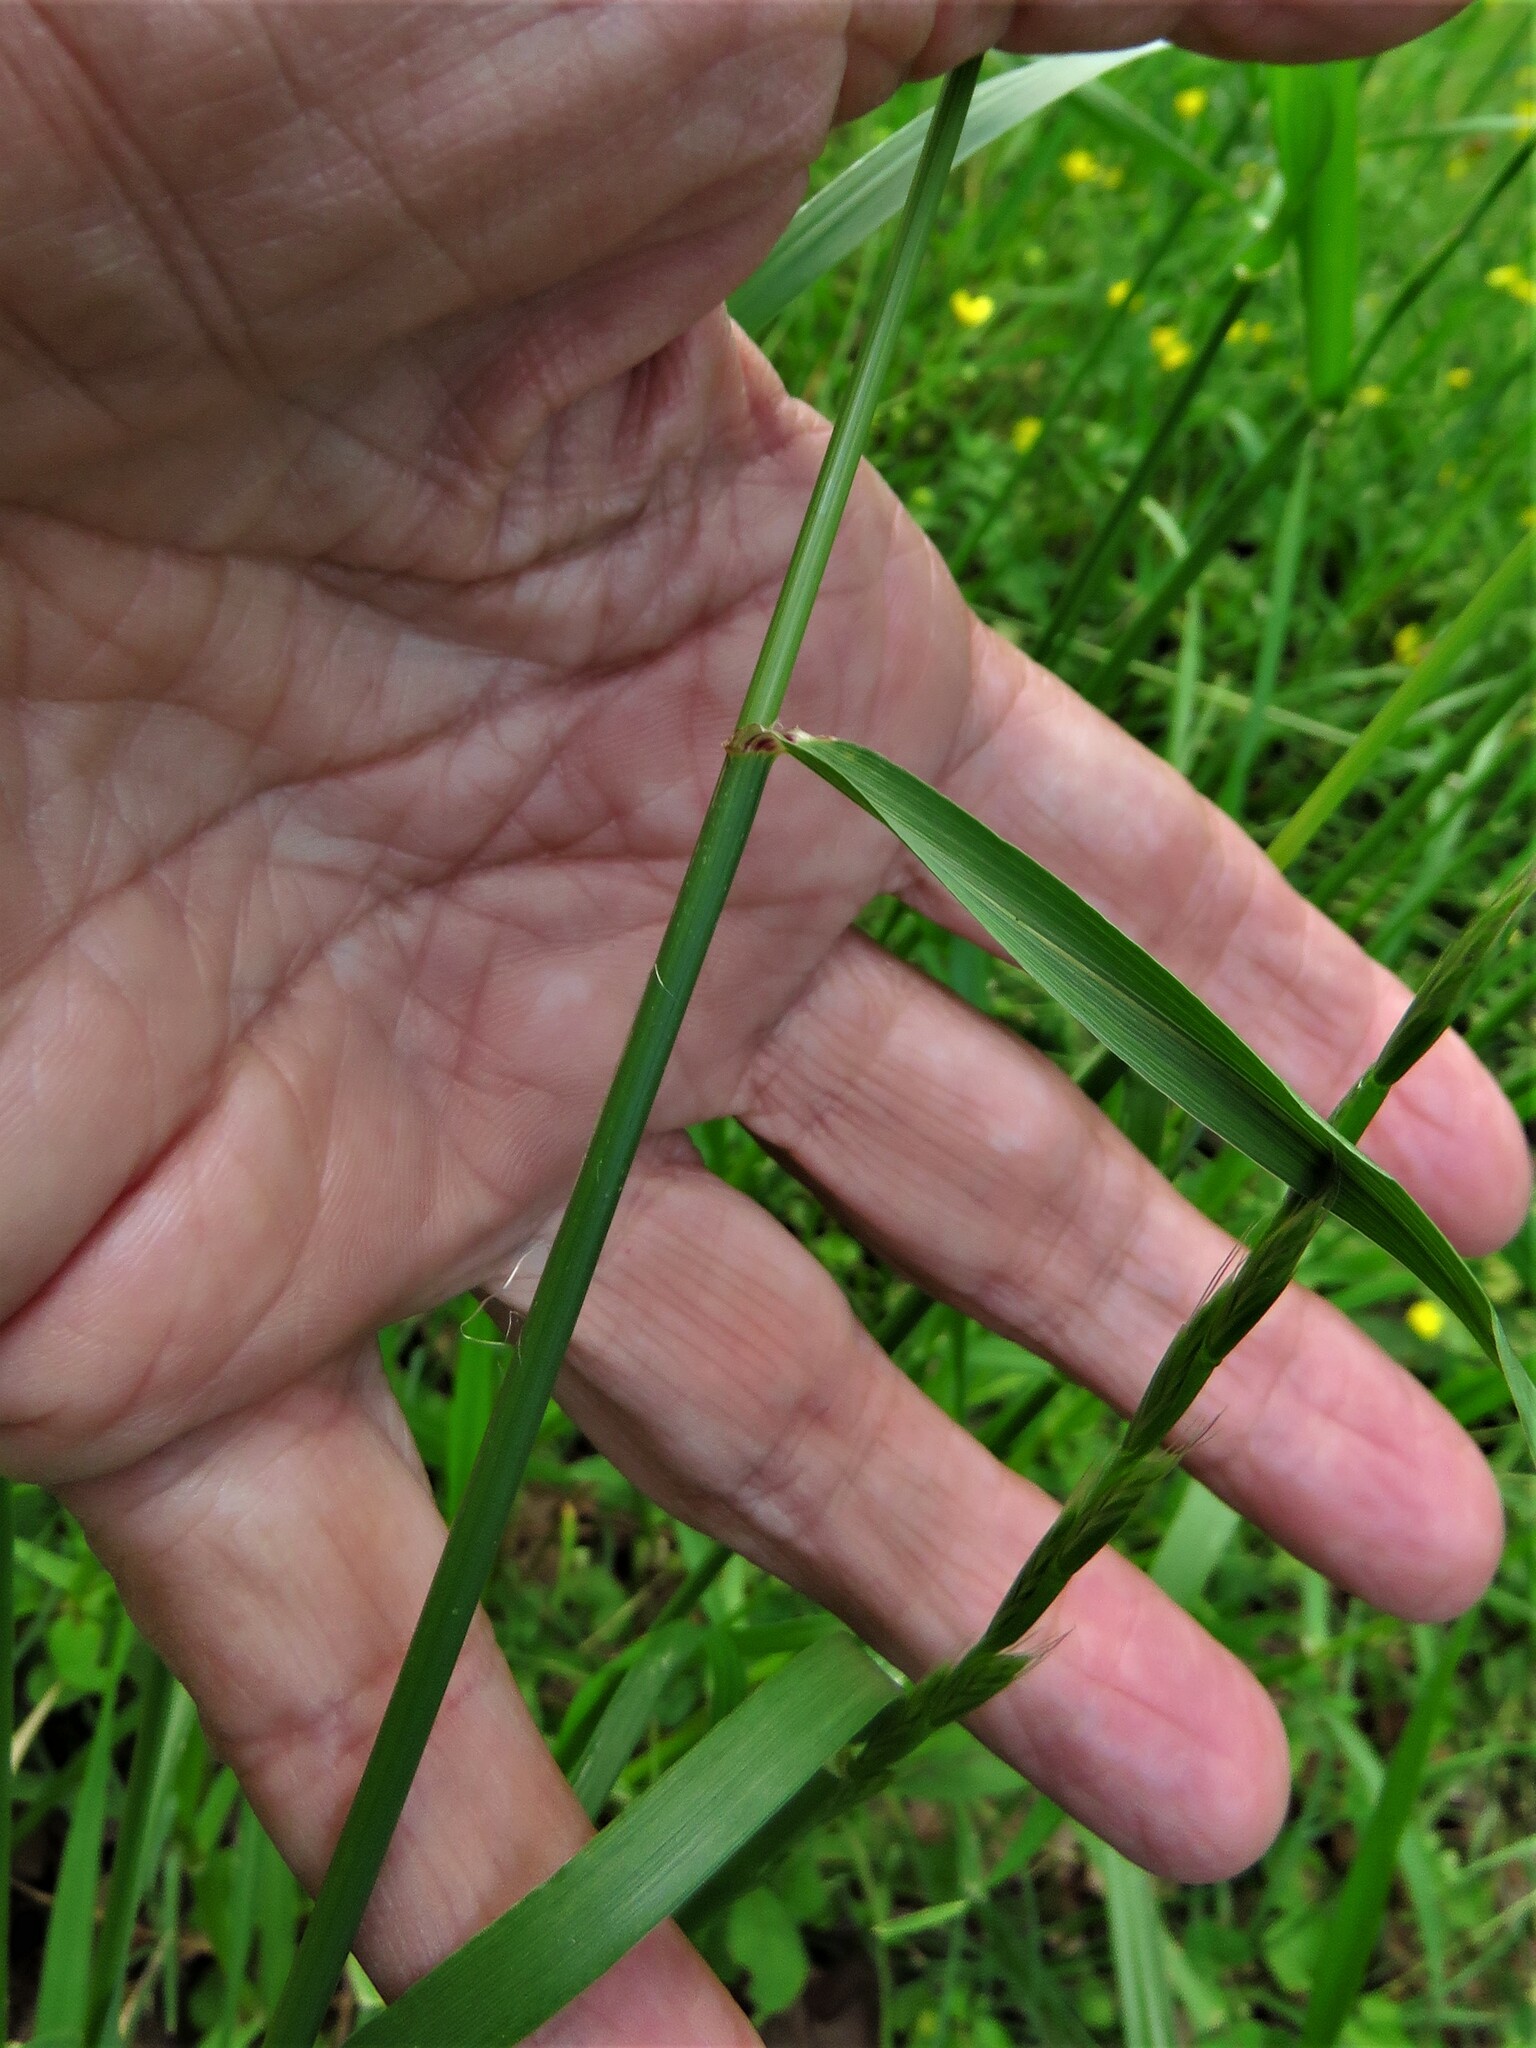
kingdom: Plantae
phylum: Tracheophyta
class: Liliopsida
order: Poales
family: Poaceae
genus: Lolium
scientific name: Lolium perenne
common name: Perennial ryegrass
